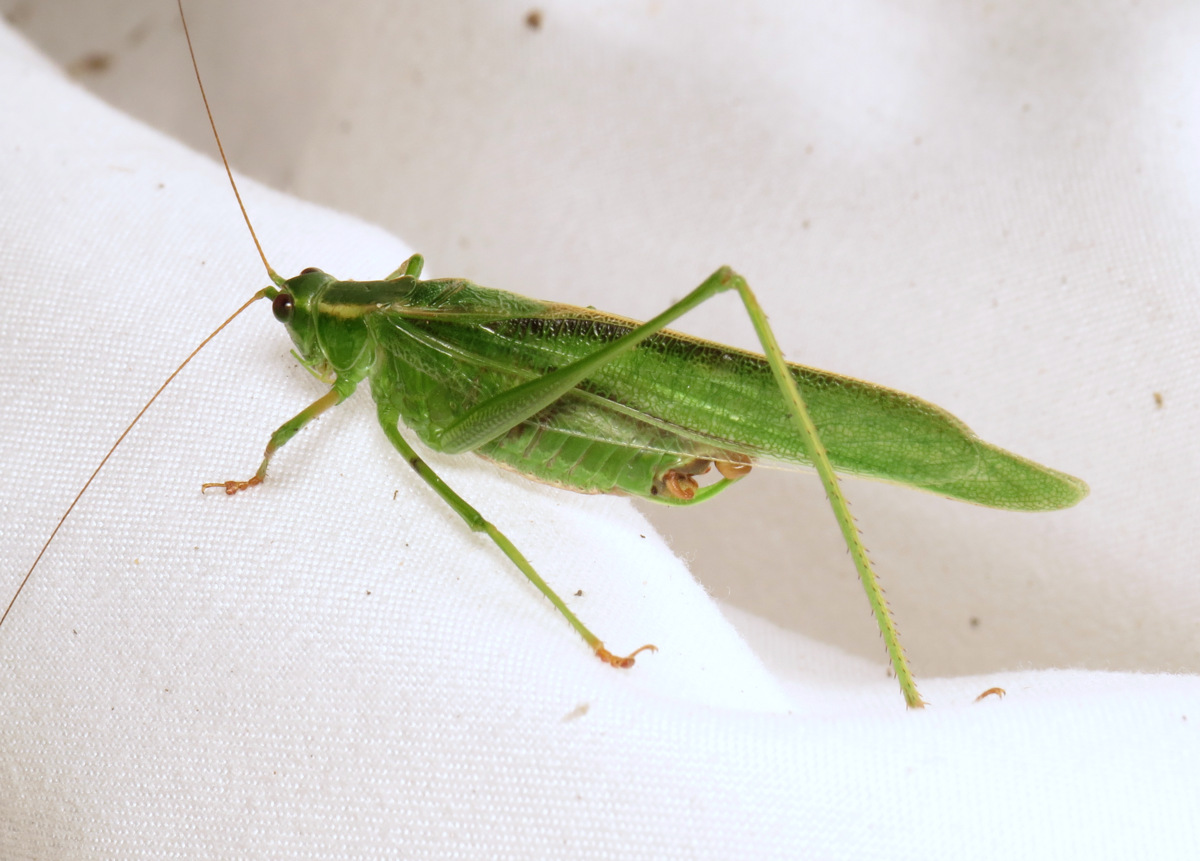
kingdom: Animalia
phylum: Arthropoda
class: Insecta
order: Orthoptera
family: Tettigoniidae
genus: Scudderia
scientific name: Scudderia fasciata
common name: Treetop bush katydid
